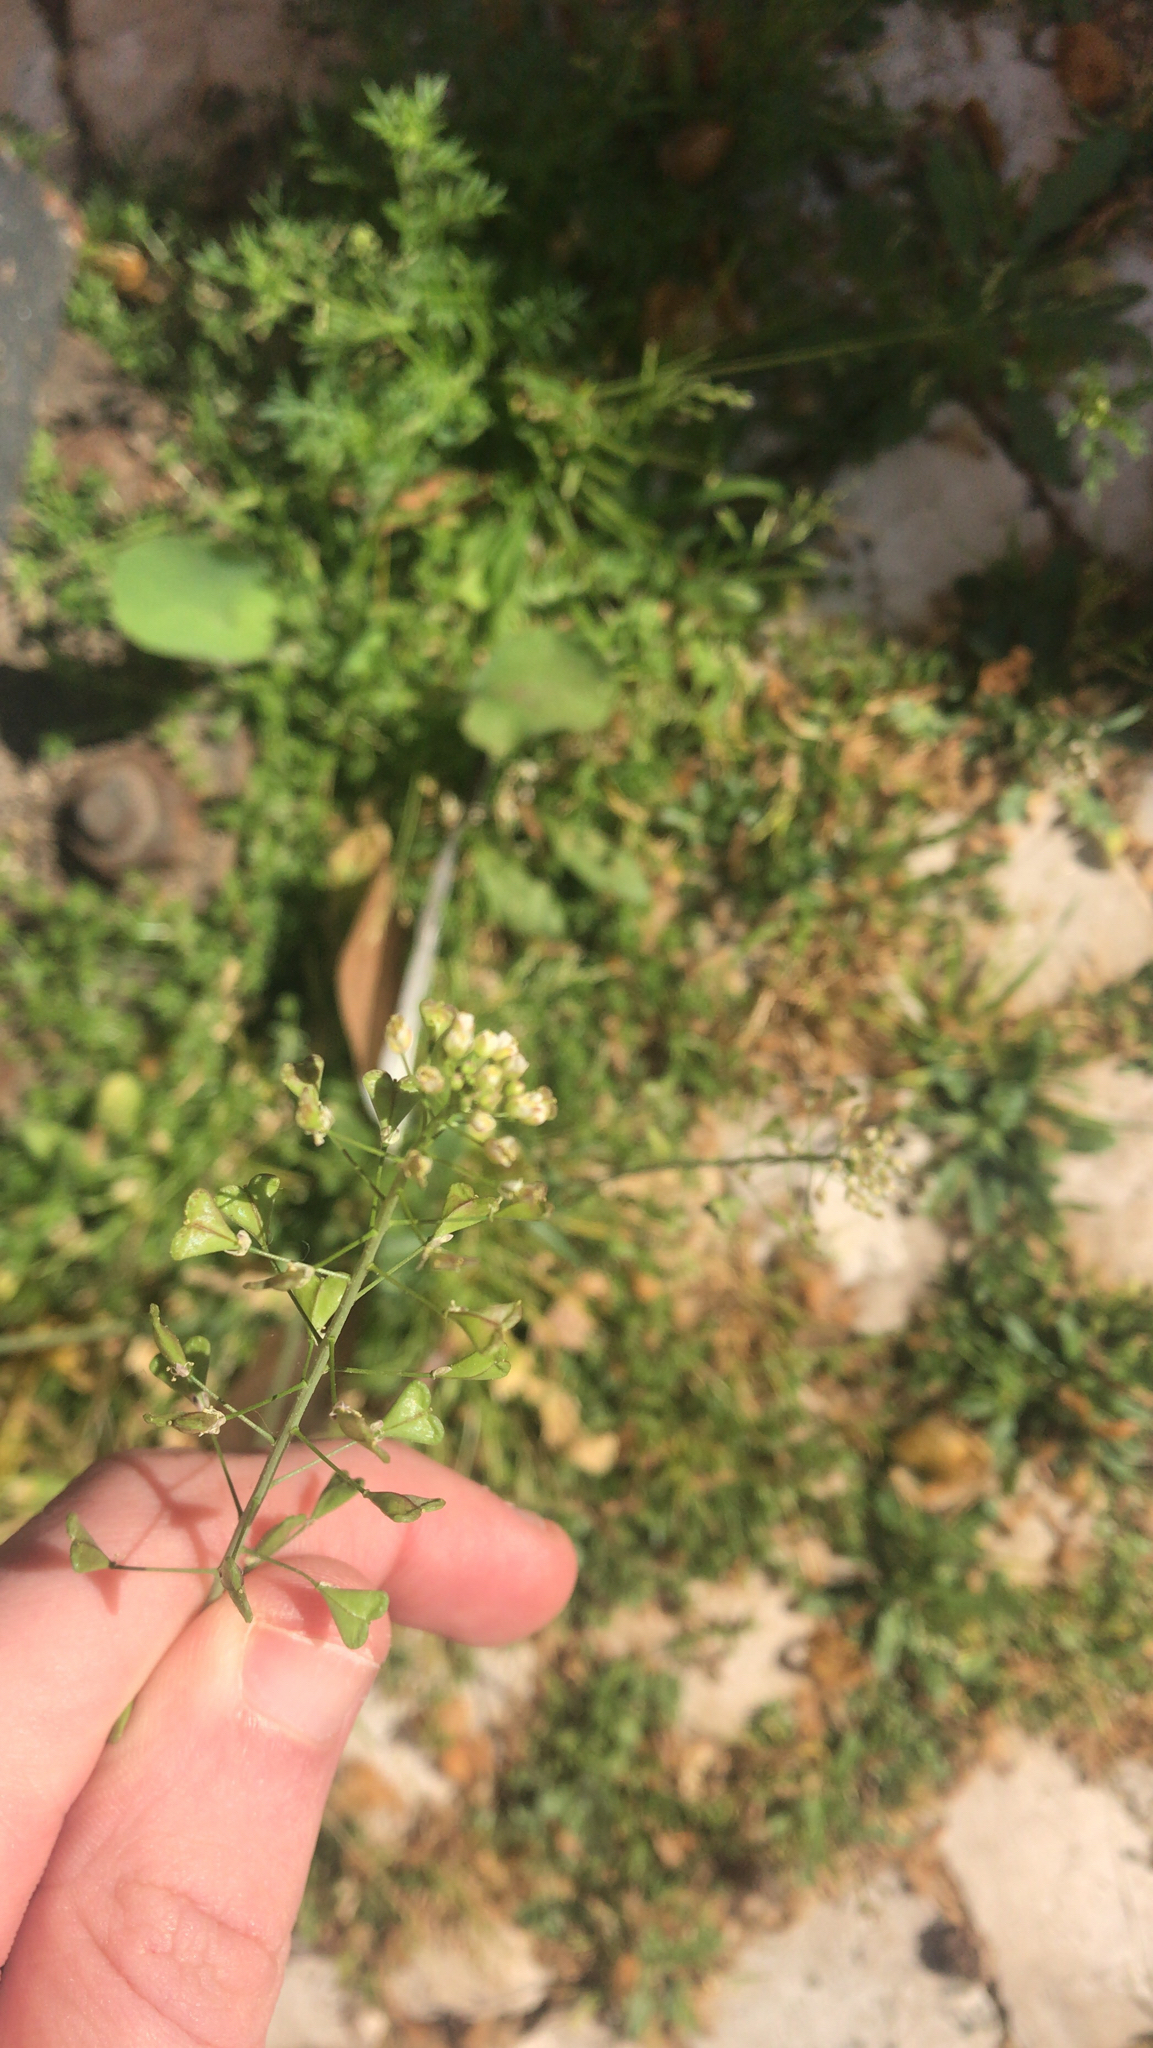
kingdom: Plantae
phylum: Tracheophyta
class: Magnoliopsida
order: Brassicales
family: Brassicaceae
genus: Capsella
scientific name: Capsella bursa-pastoris
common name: Shepherd's purse
